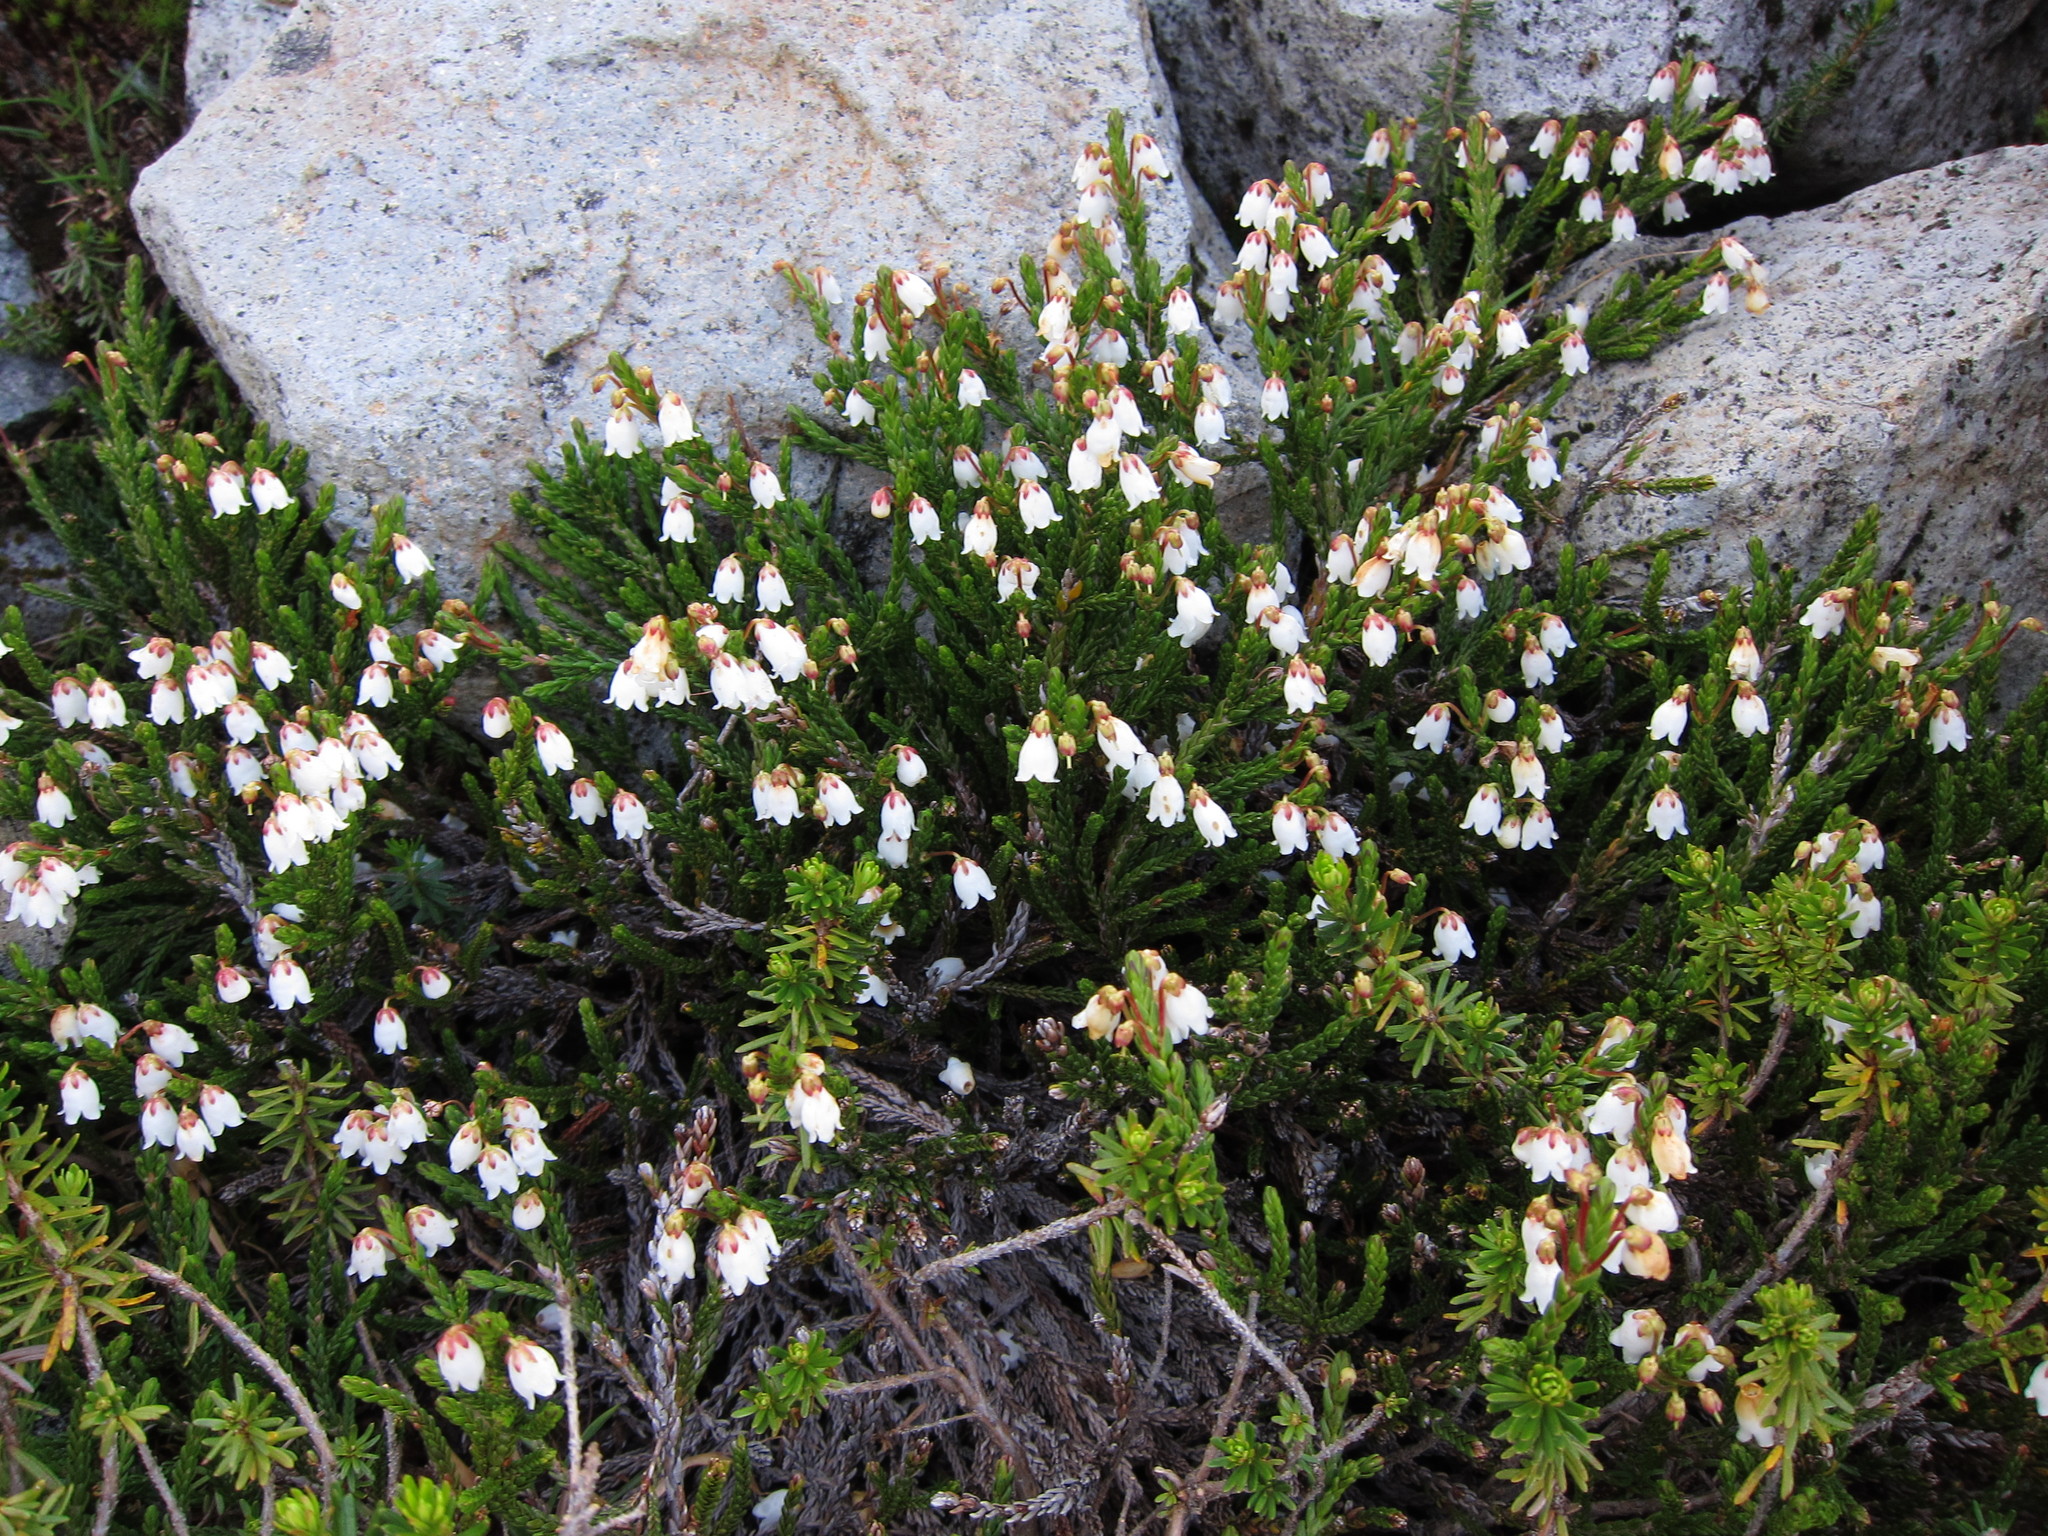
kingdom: Plantae
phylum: Tracheophyta
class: Magnoliopsida
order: Ericales
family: Ericaceae
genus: Cassiope
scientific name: Cassiope mertensiana
